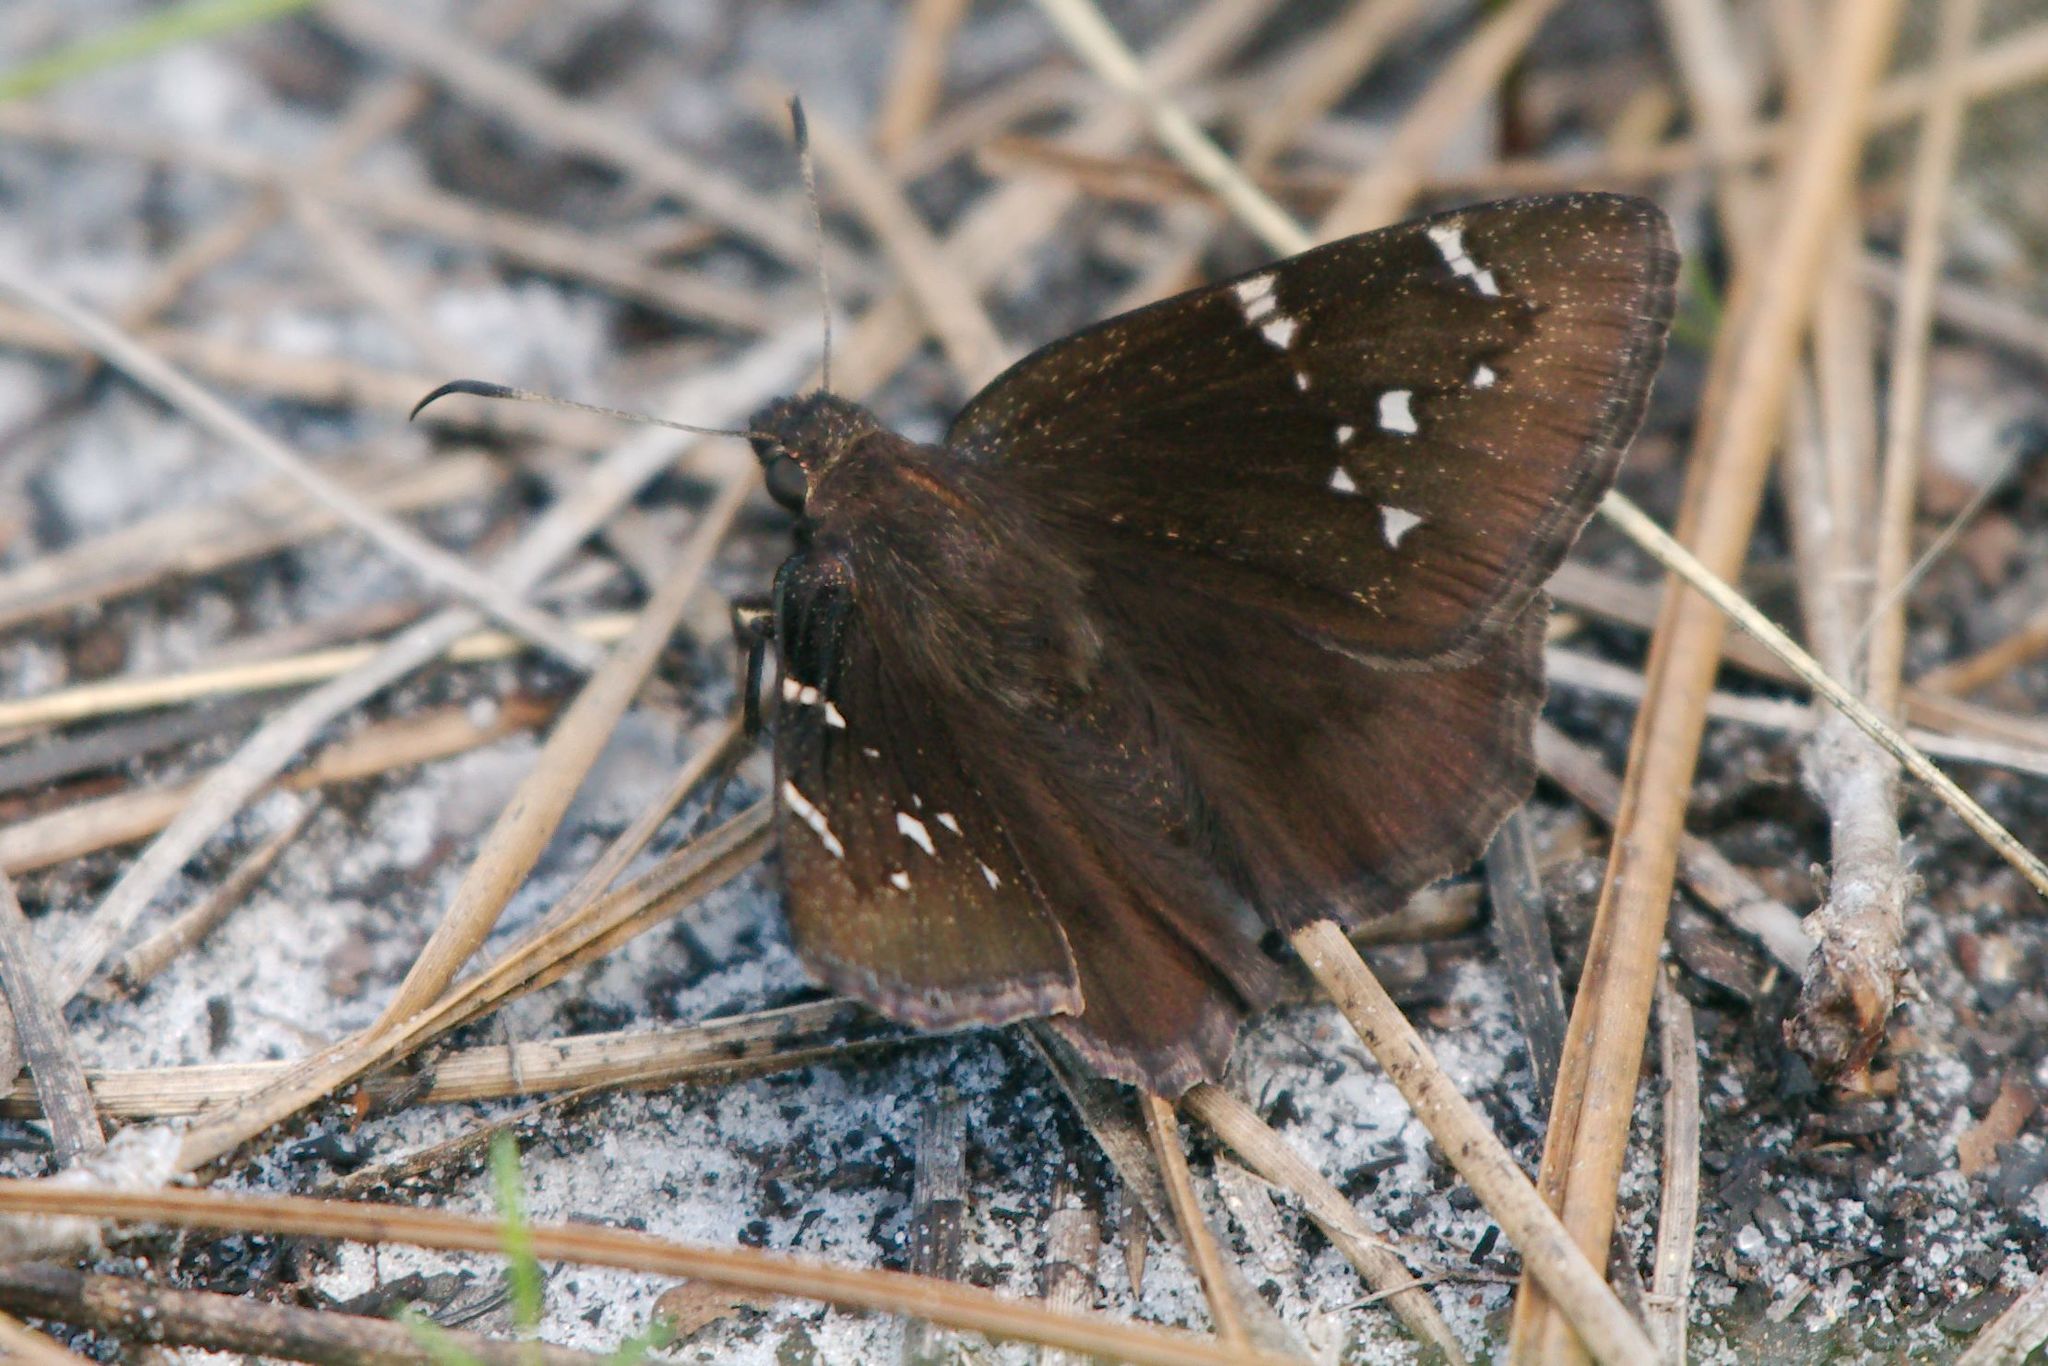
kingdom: Animalia
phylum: Arthropoda
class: Insecta
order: Lepidoptera
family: Hesperiidae
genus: Thorybes
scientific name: Thorybes pylades
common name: Northern cloudywing
